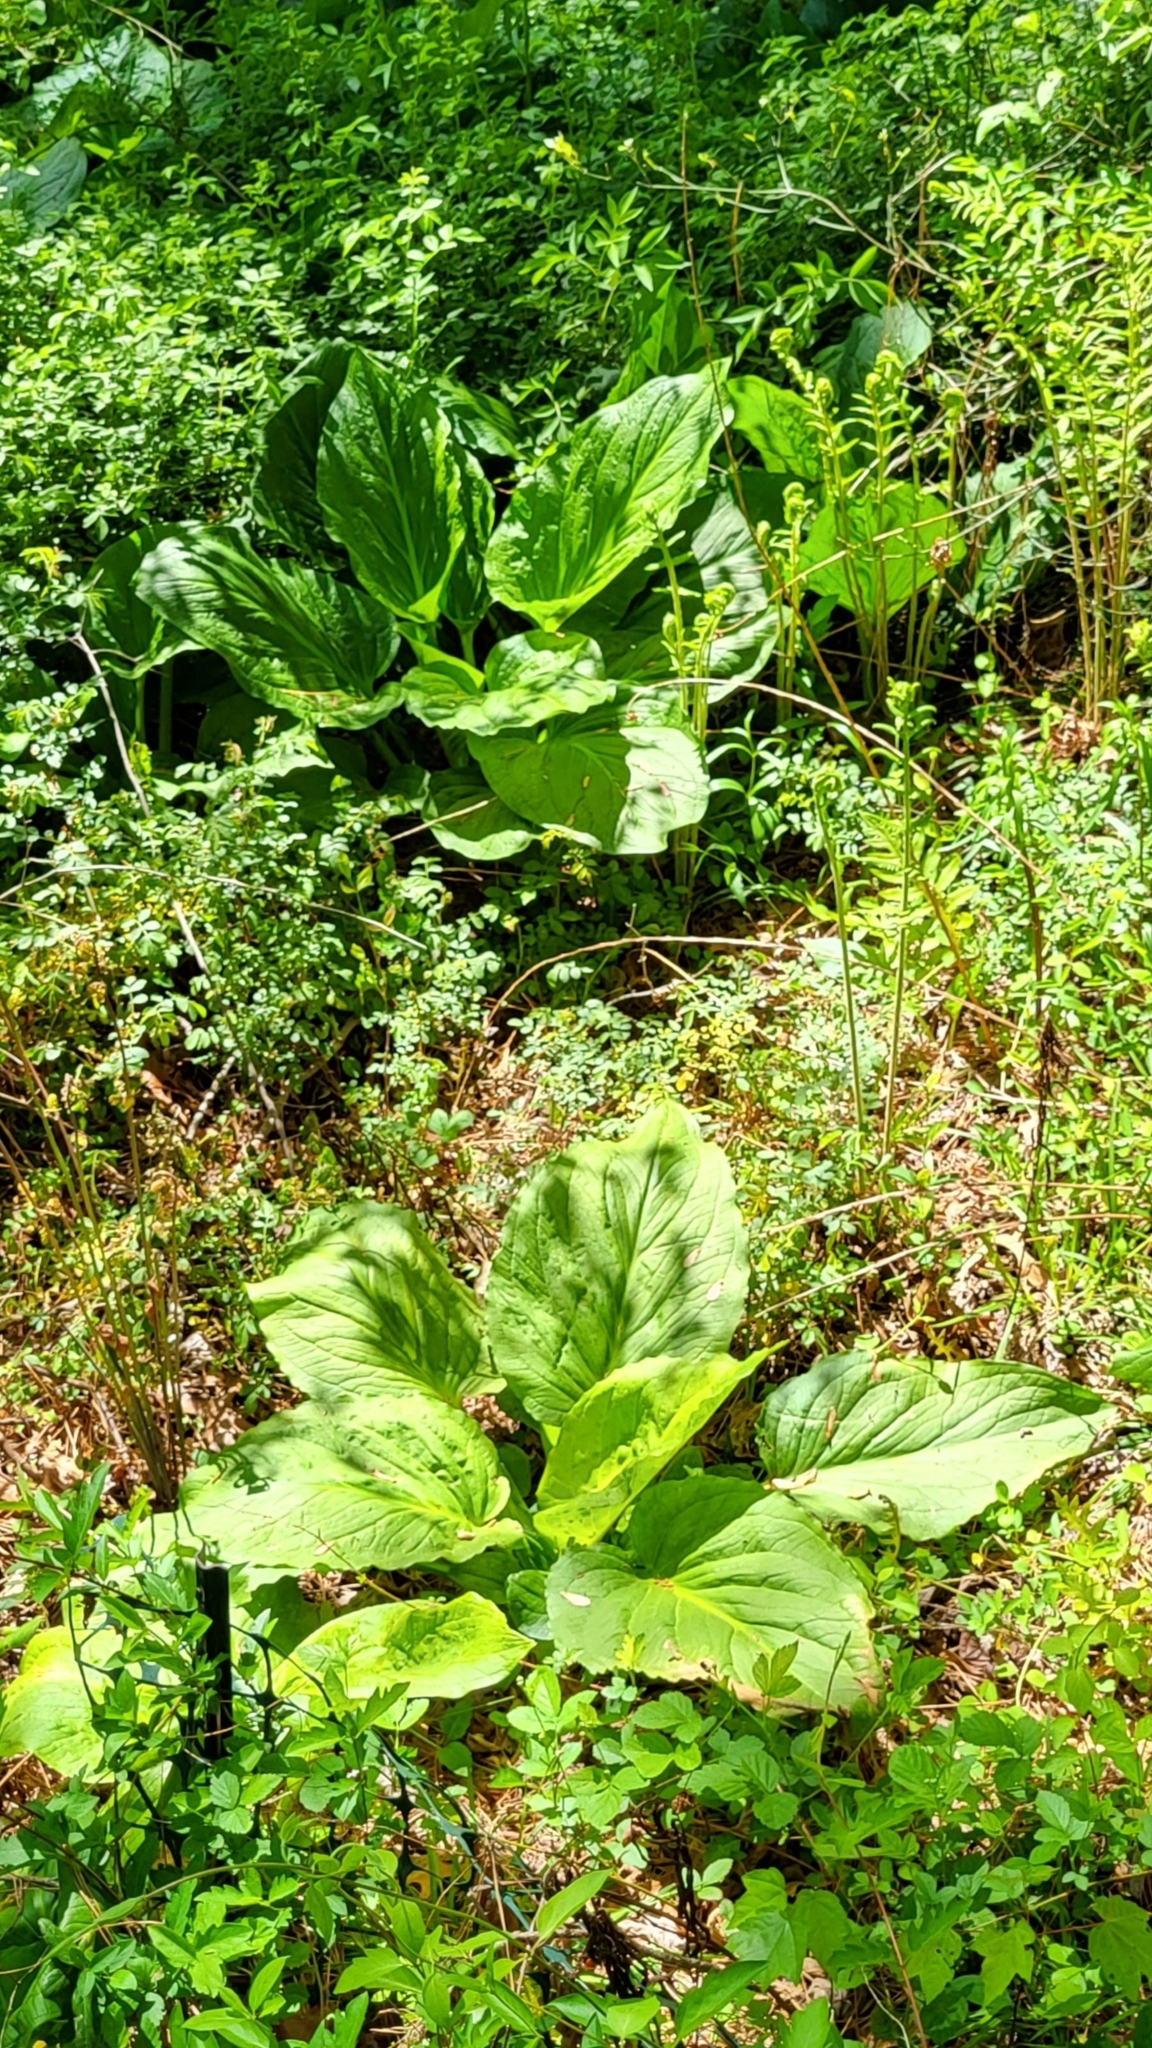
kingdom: Plantae
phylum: Tracheophyta
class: Liliopsida
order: Alismatales
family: Araceae
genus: Symplocarpus
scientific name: Symplocarpus foetidus
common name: Eastern skunk cabbage
